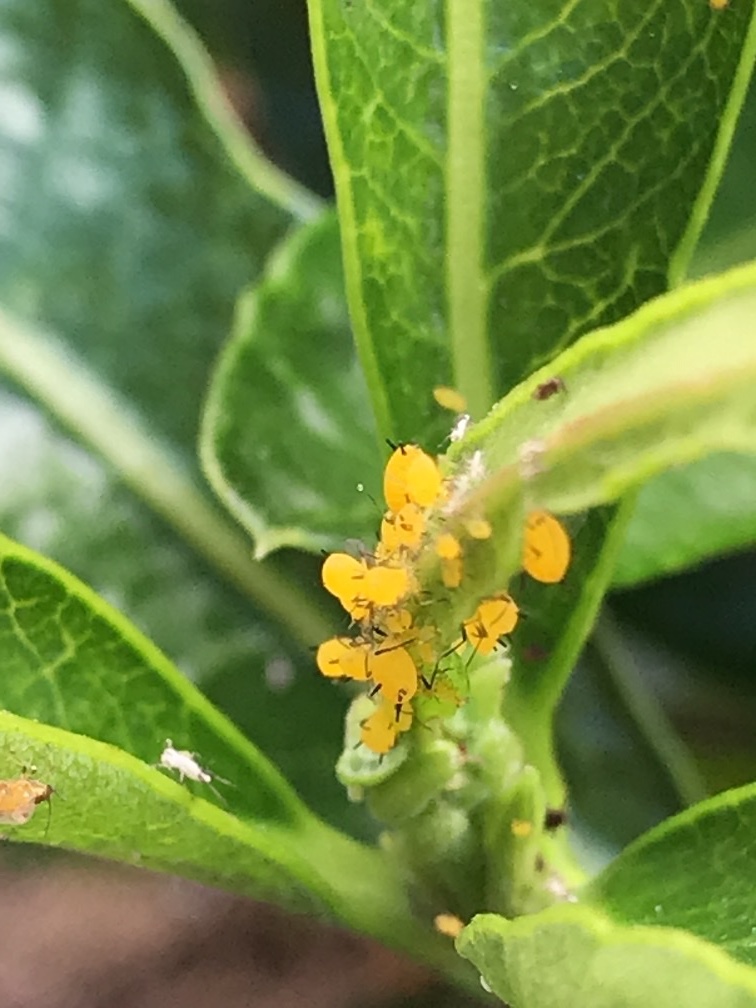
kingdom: Animalia
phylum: Arthropoda
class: Insecta
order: Hemiptera
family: Aphididae
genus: Aphis
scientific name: Aphis nerii
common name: Oleander aphid
